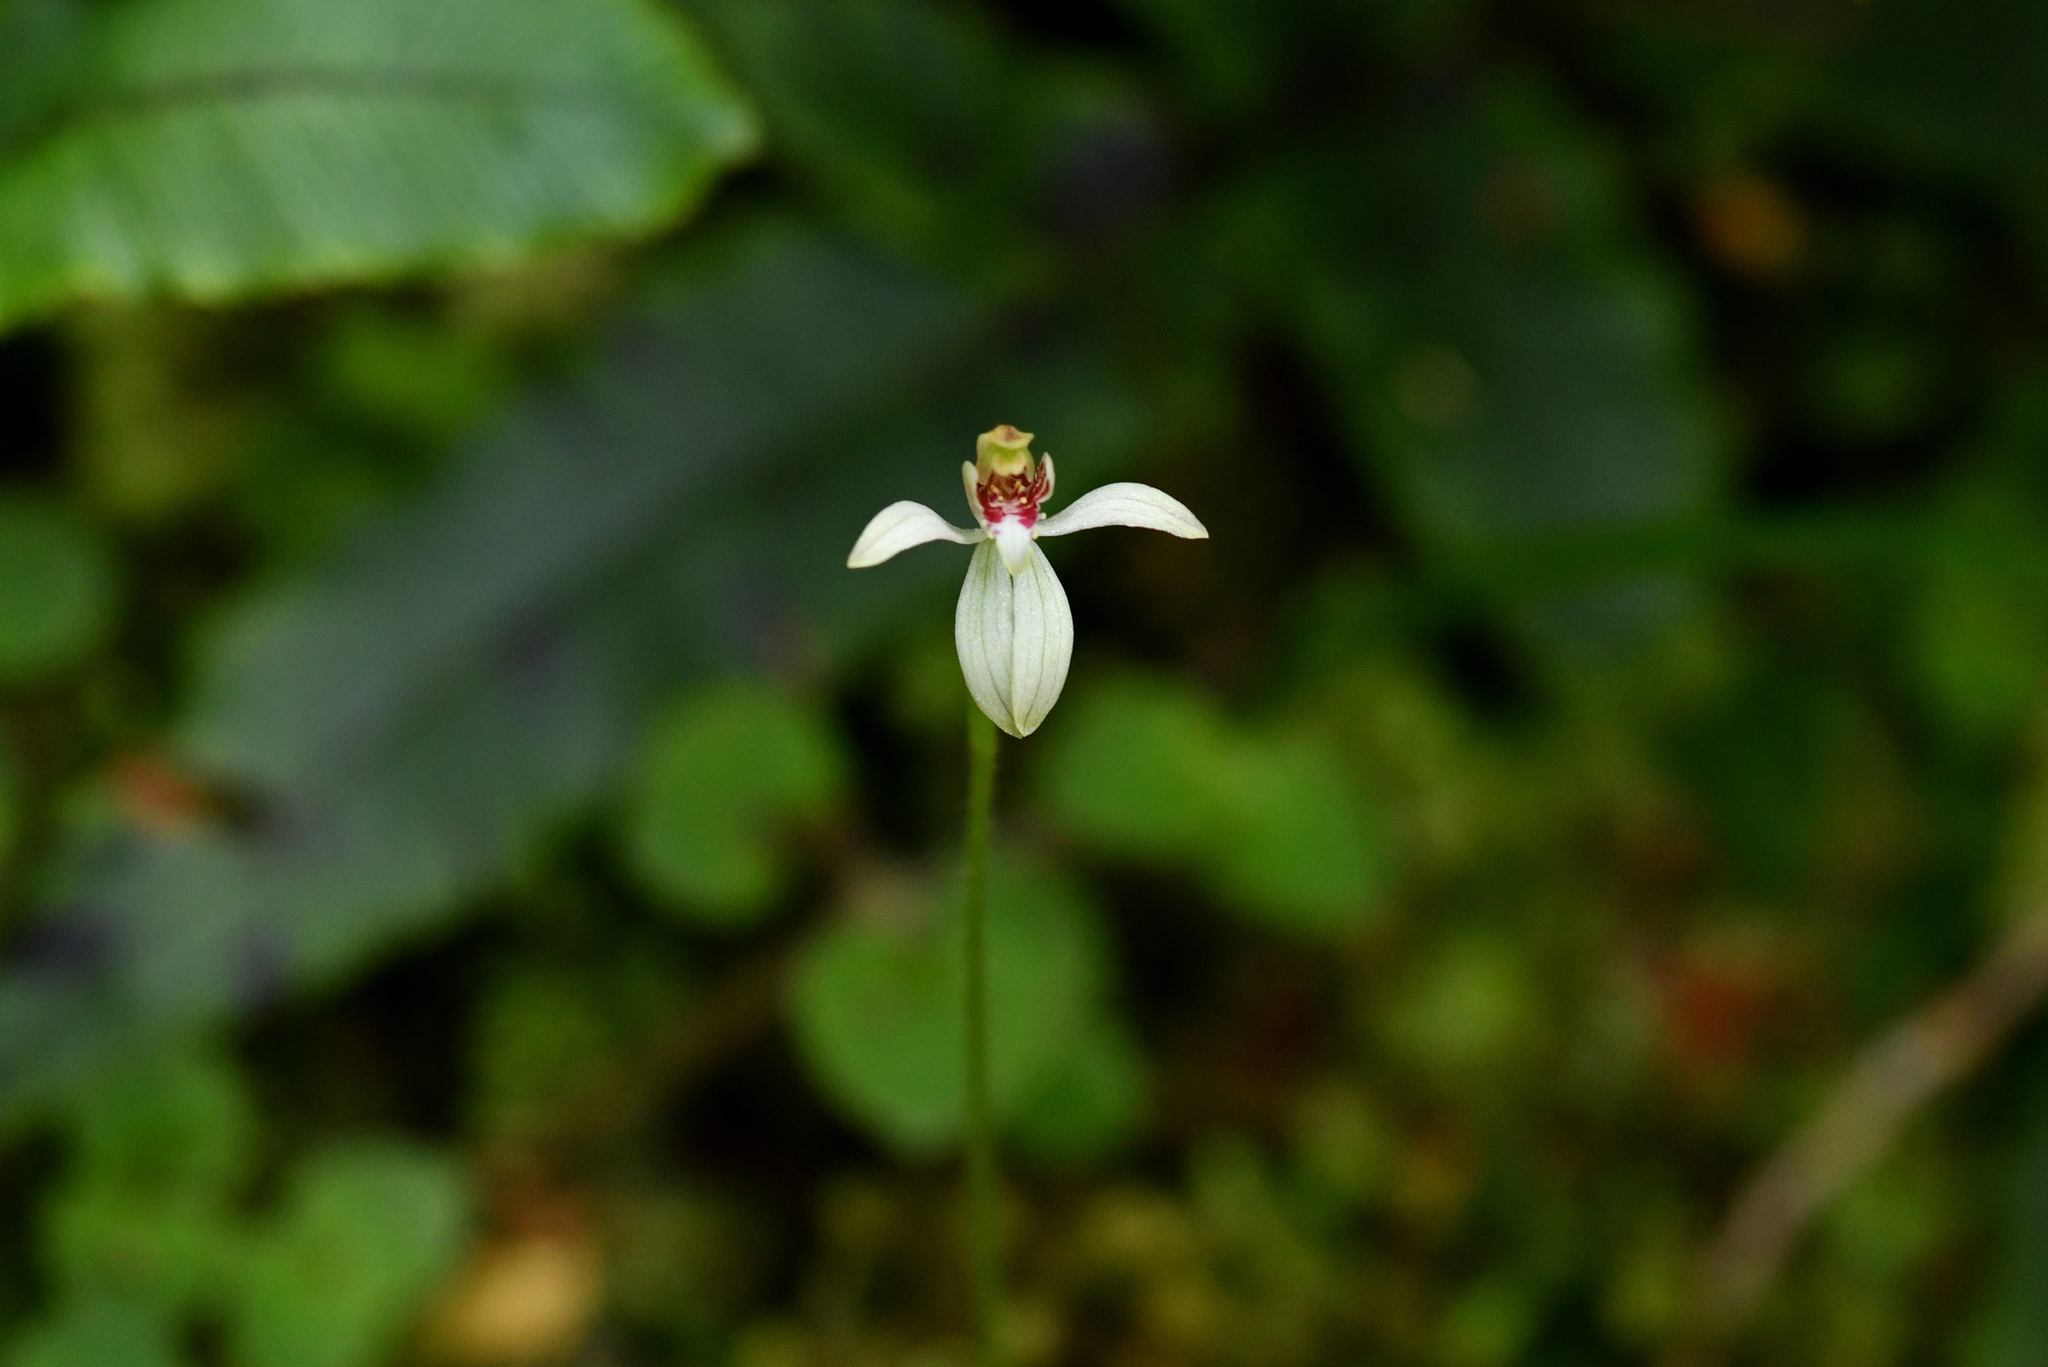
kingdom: Plantae
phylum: Tracheophyta
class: Liliopsida
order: Asparagales
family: Orchidaceae
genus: Caladenia
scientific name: Caladenia chlorostyla
